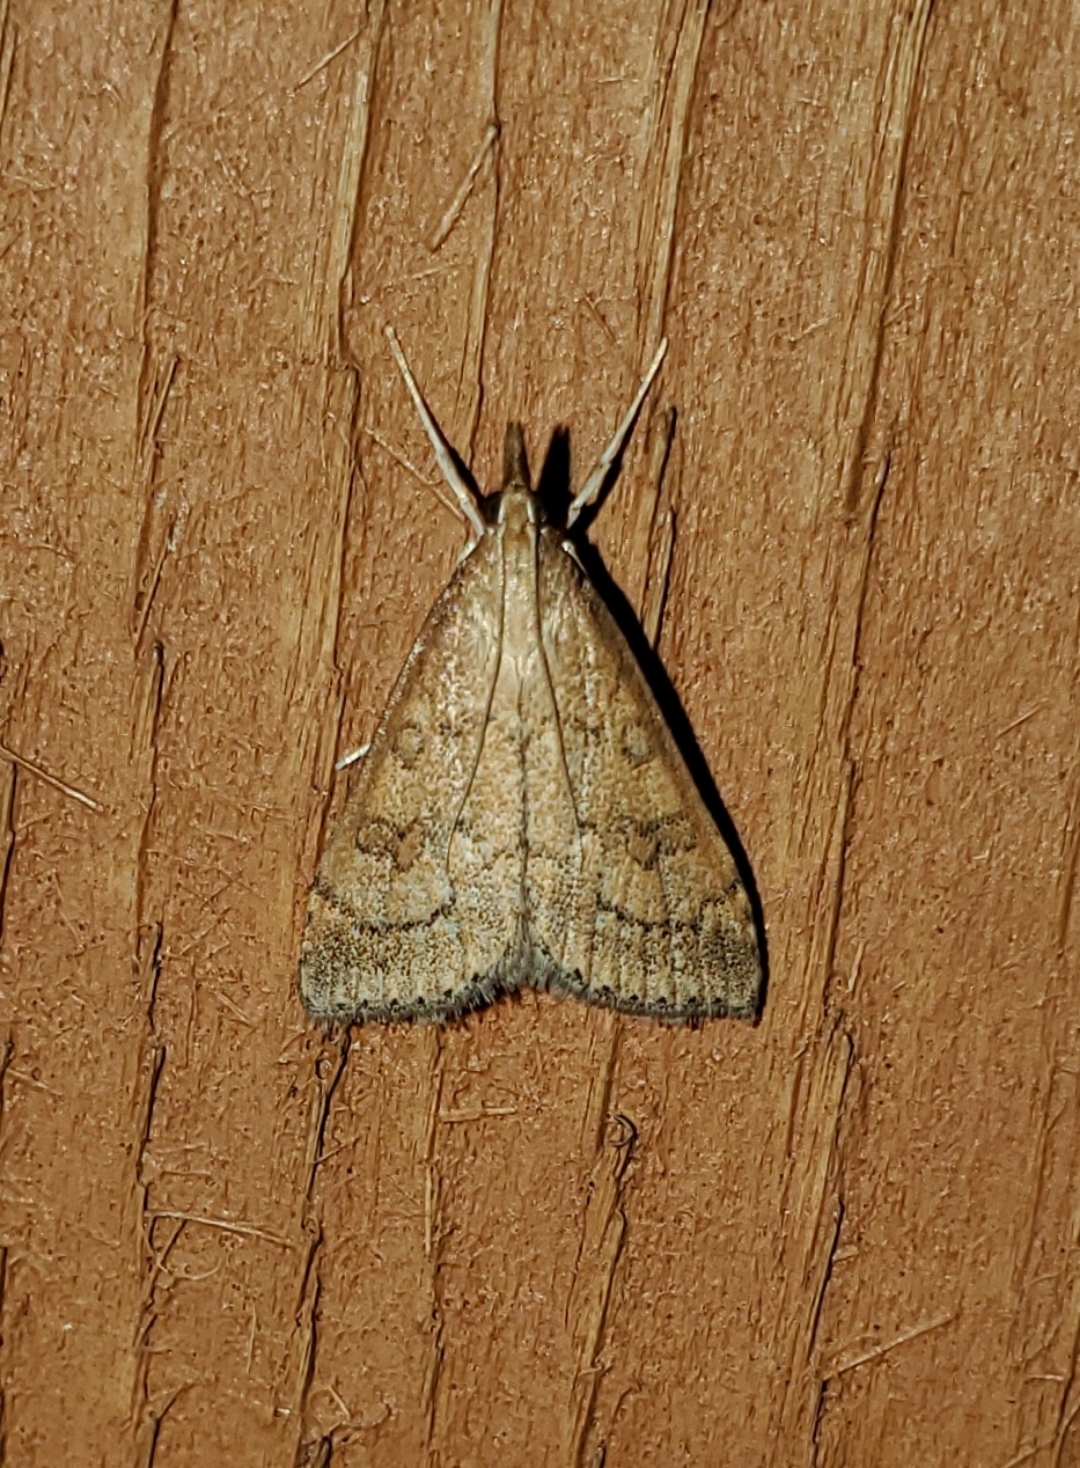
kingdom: Animalia
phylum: Arthropoda
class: Insecta
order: Lepidoptera
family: Crambidae
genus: Udea
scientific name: Udea rubigalis
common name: Celery leaftier moth
